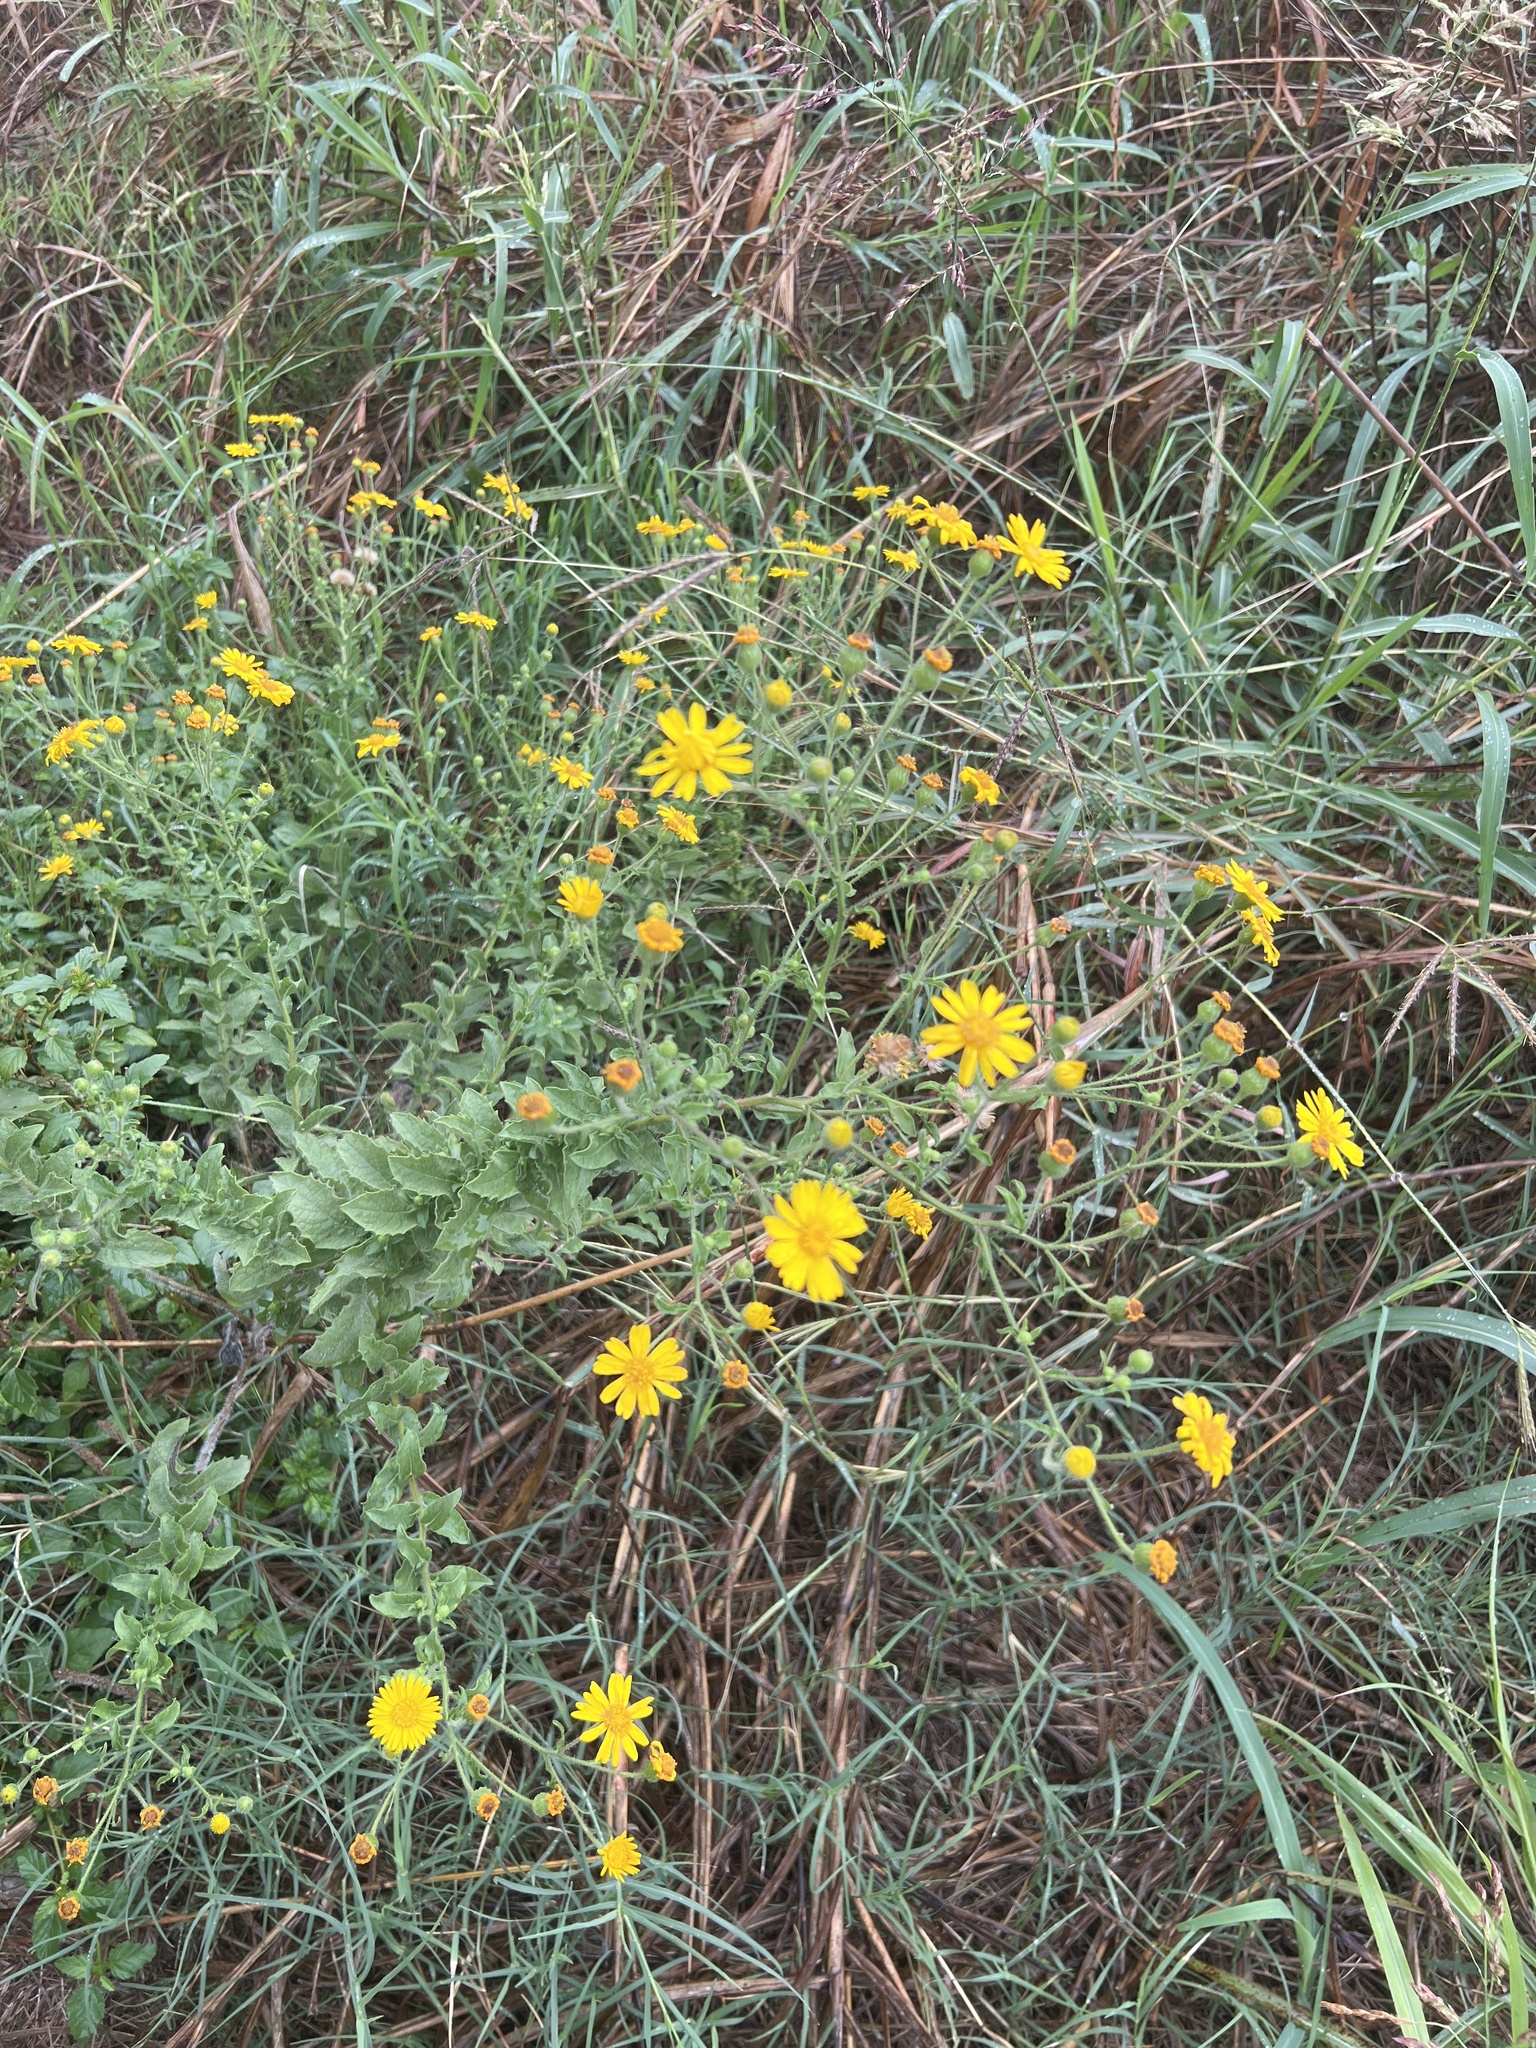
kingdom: Plantae
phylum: Tracheophyta
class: Magnoliopsida
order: Asterales
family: Asteraceae
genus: Heterotheca
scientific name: Heterotheca subaxillaris
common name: Camphorweed
